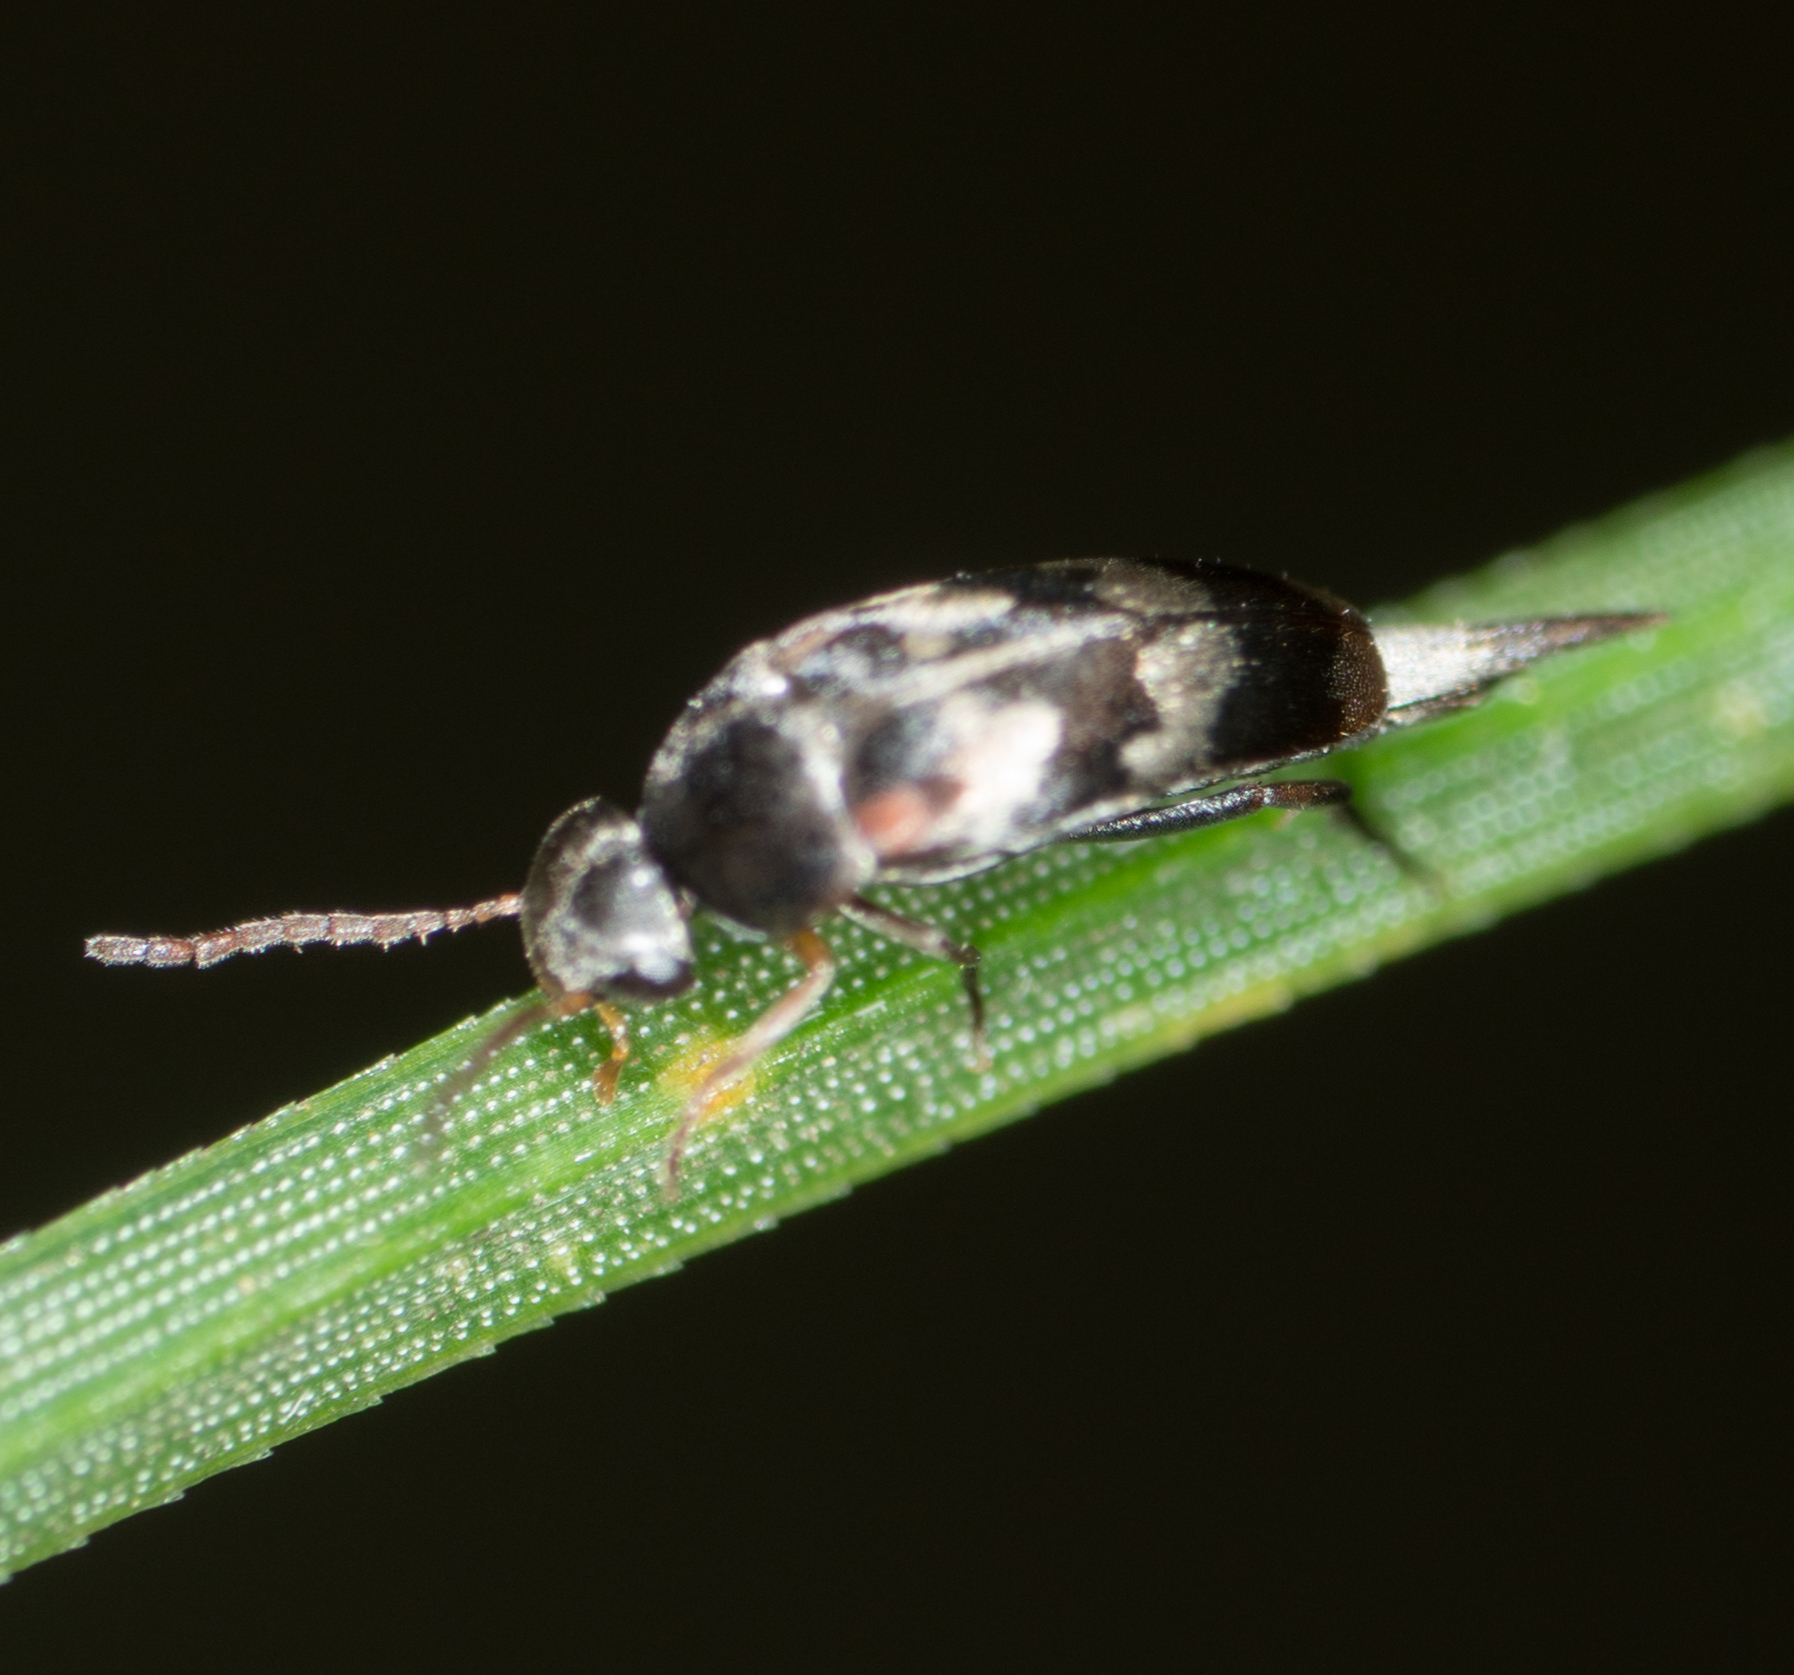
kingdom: Animalia
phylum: Arthropoda
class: Insecta
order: Coleoptera
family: Mordellidae
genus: Falsomordellistena
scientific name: Falsomordellistena pubescens
